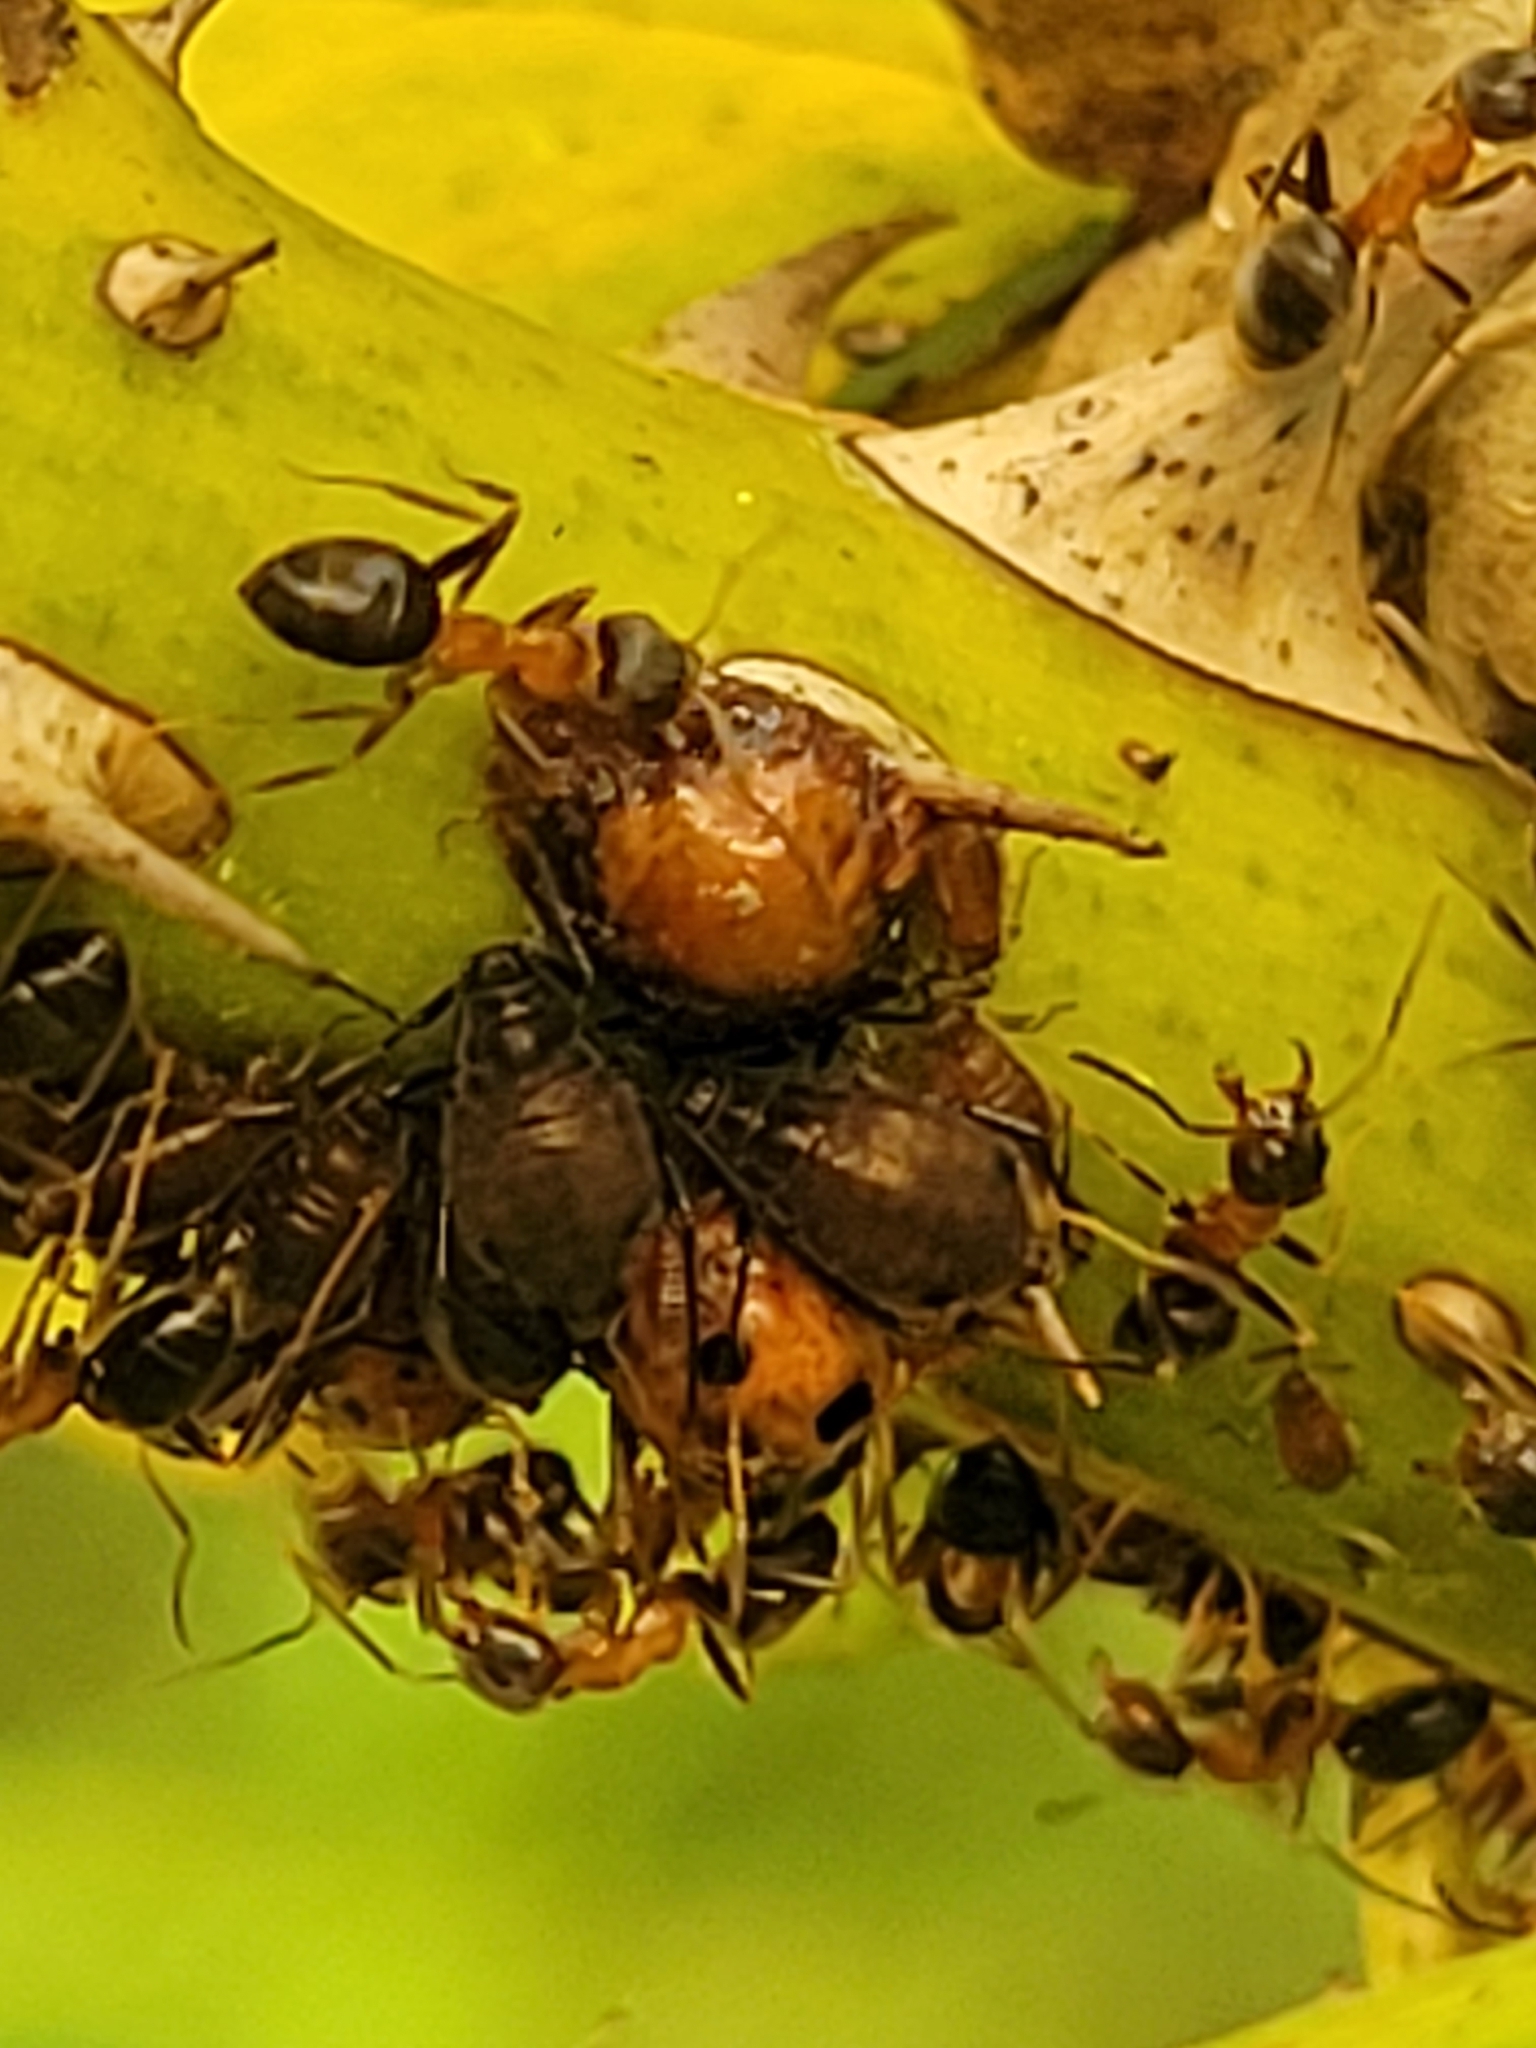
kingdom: Animalia
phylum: Arthropoda
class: Insecta
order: Hymenoptera
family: Formicidae
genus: Lasius
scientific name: Lasius emarginatus
